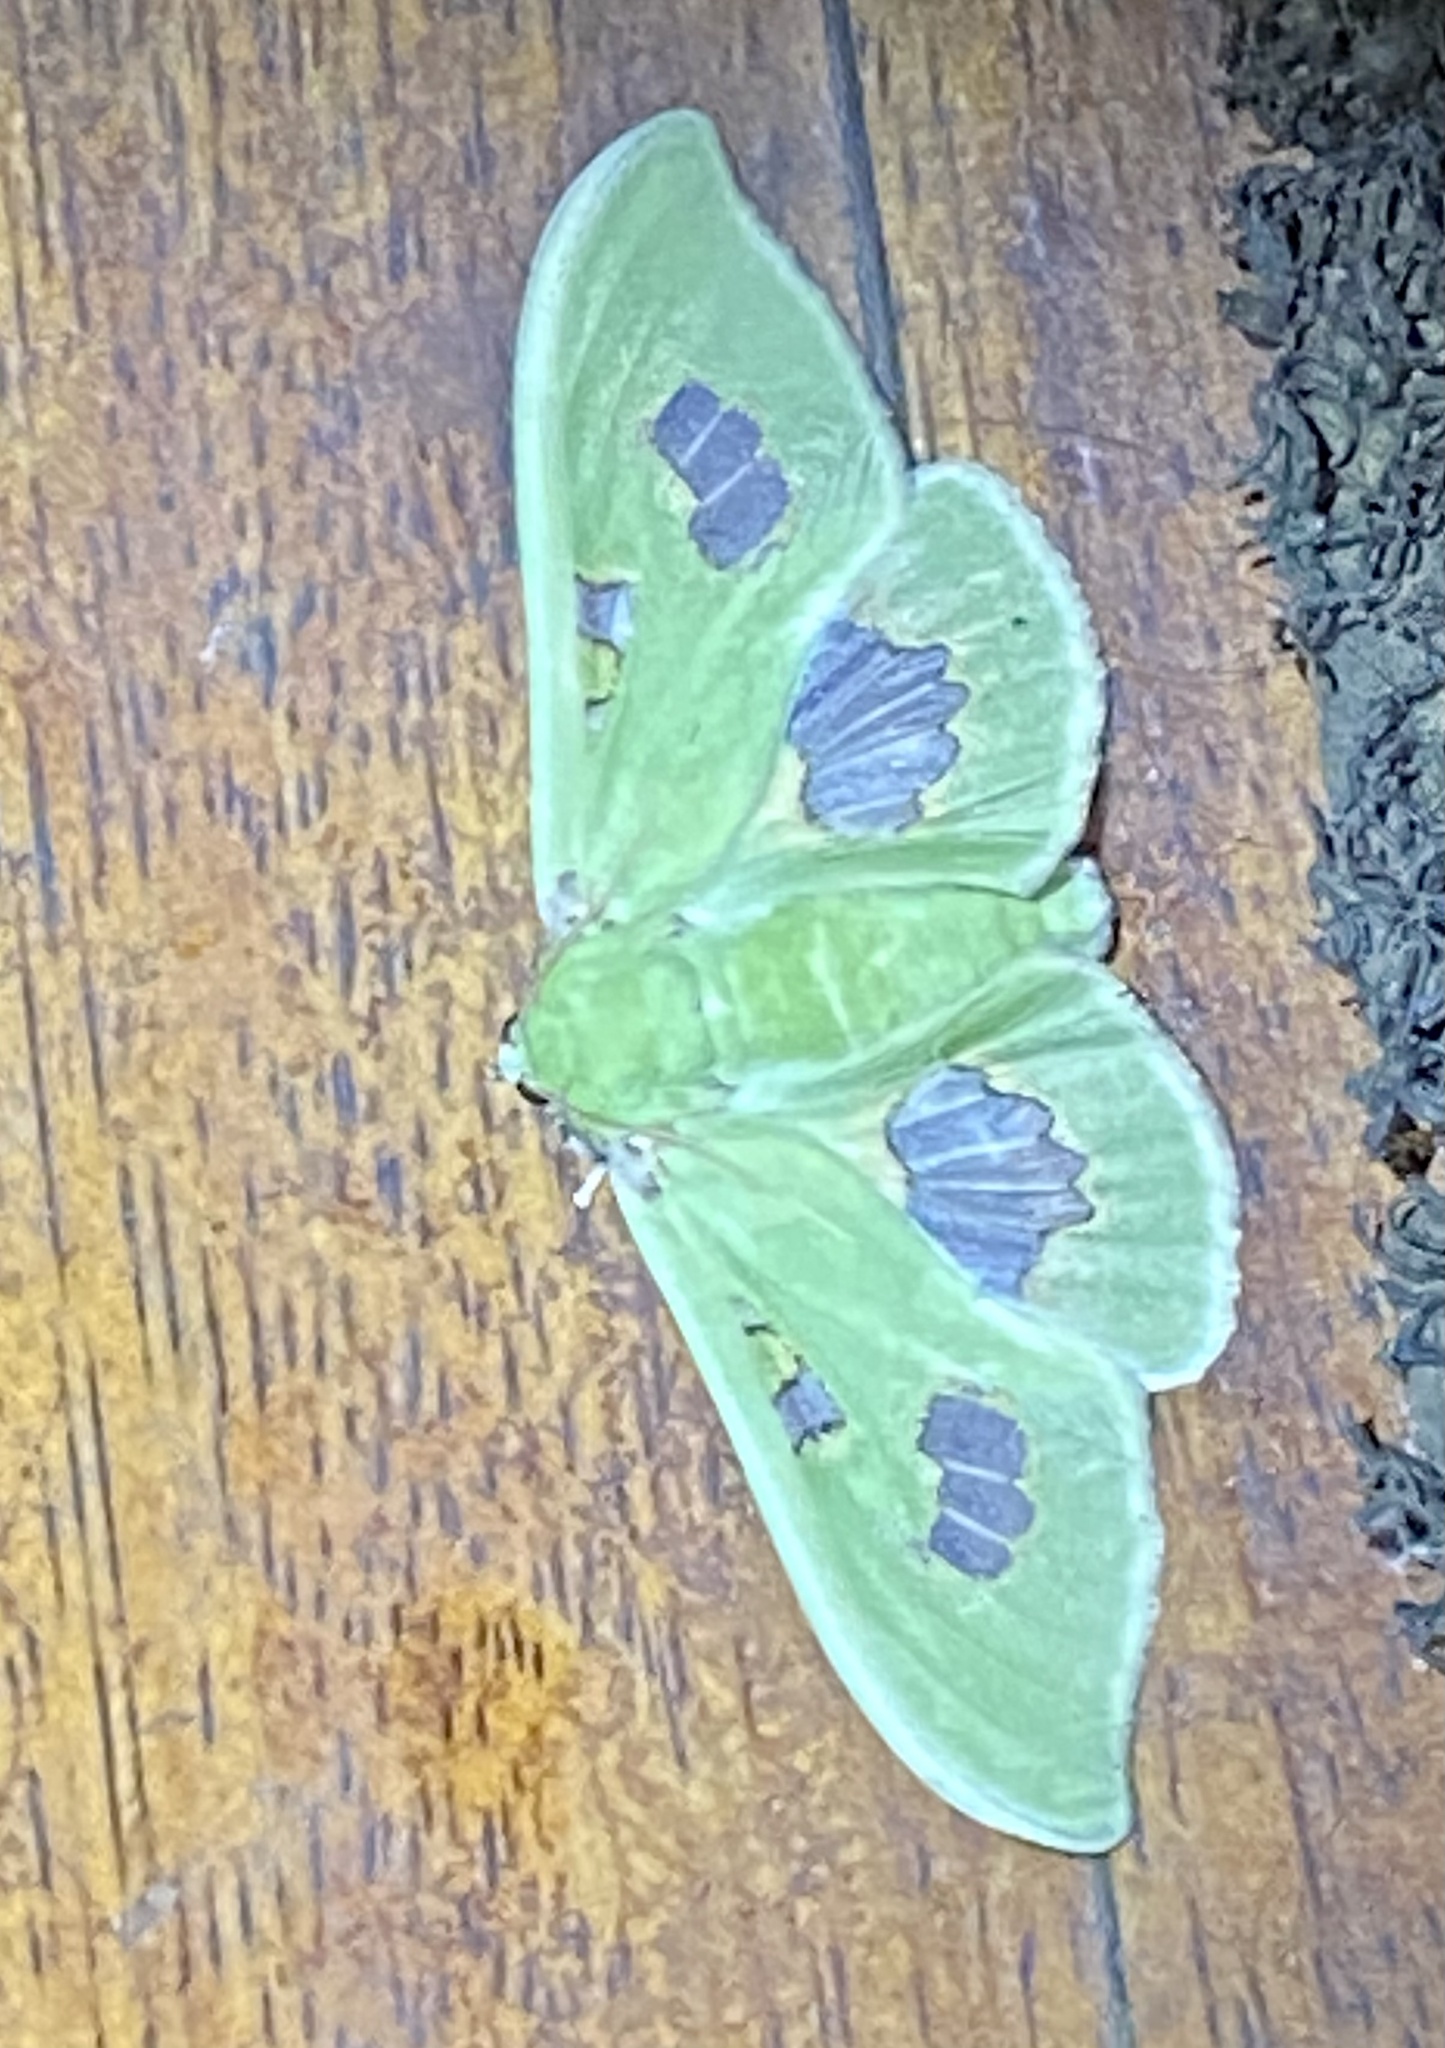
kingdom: Animalia
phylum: Arthropoda
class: Insecta
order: Lepidoptera
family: Crambidae
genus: Siga
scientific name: Siga liris
